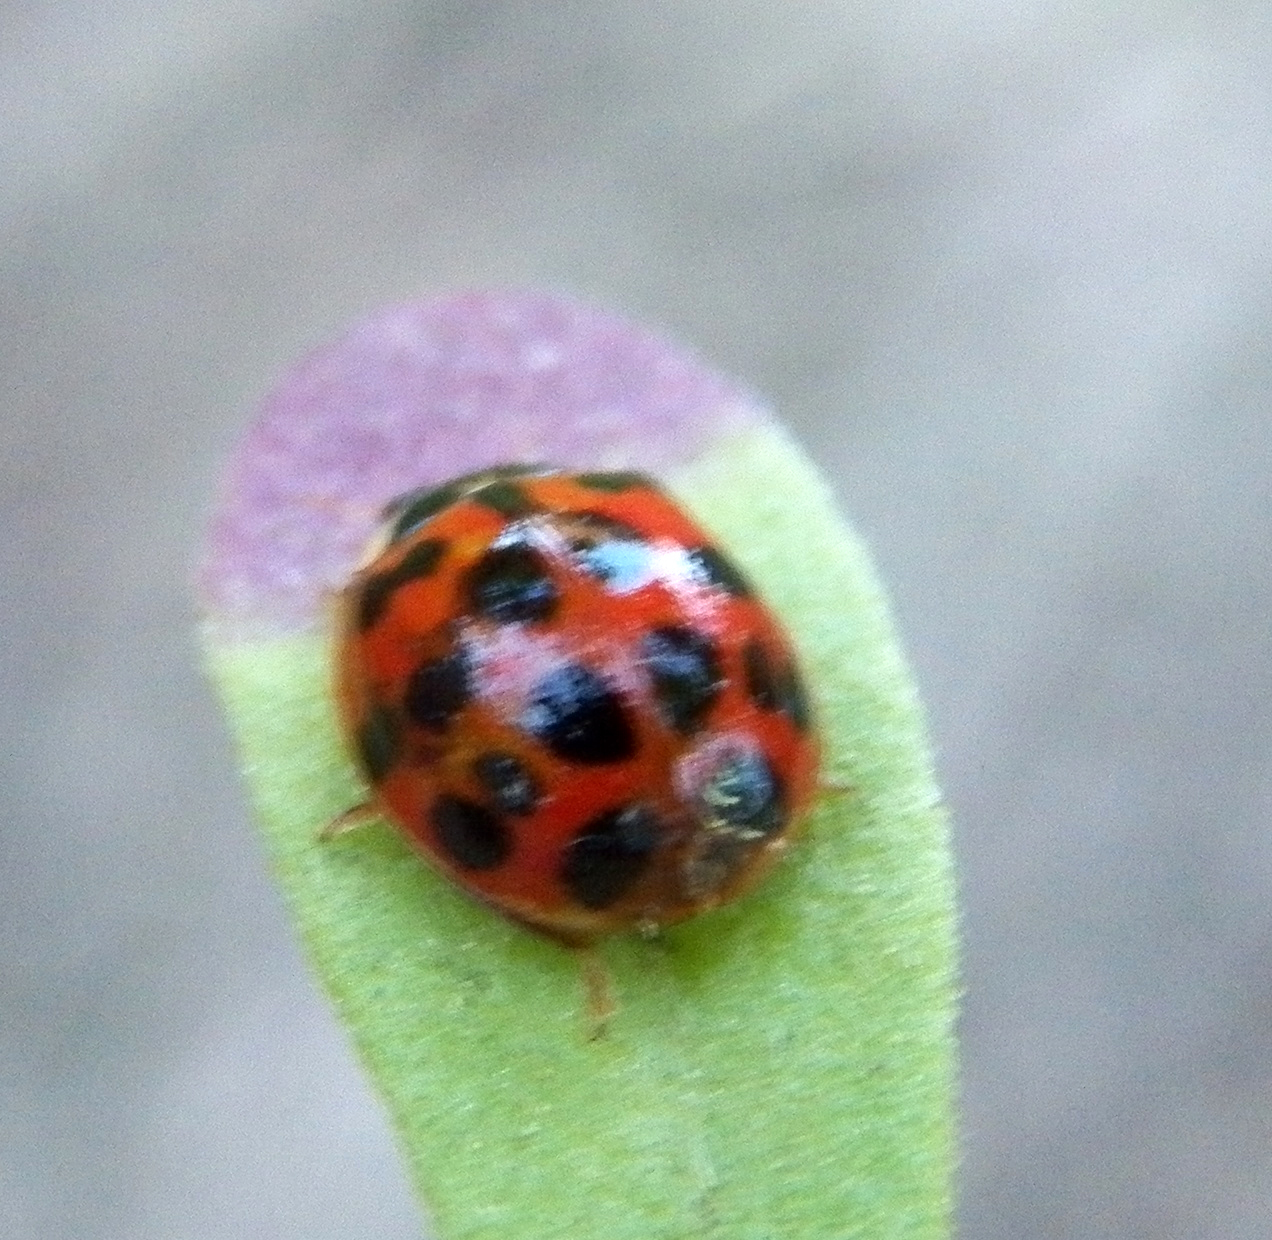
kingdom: Animalia
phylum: Arthropoda
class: Insecta
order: Coleoptera
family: Coccinellidae
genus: Harmonia
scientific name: Harmonia axyridis
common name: Harlequin ladybird
